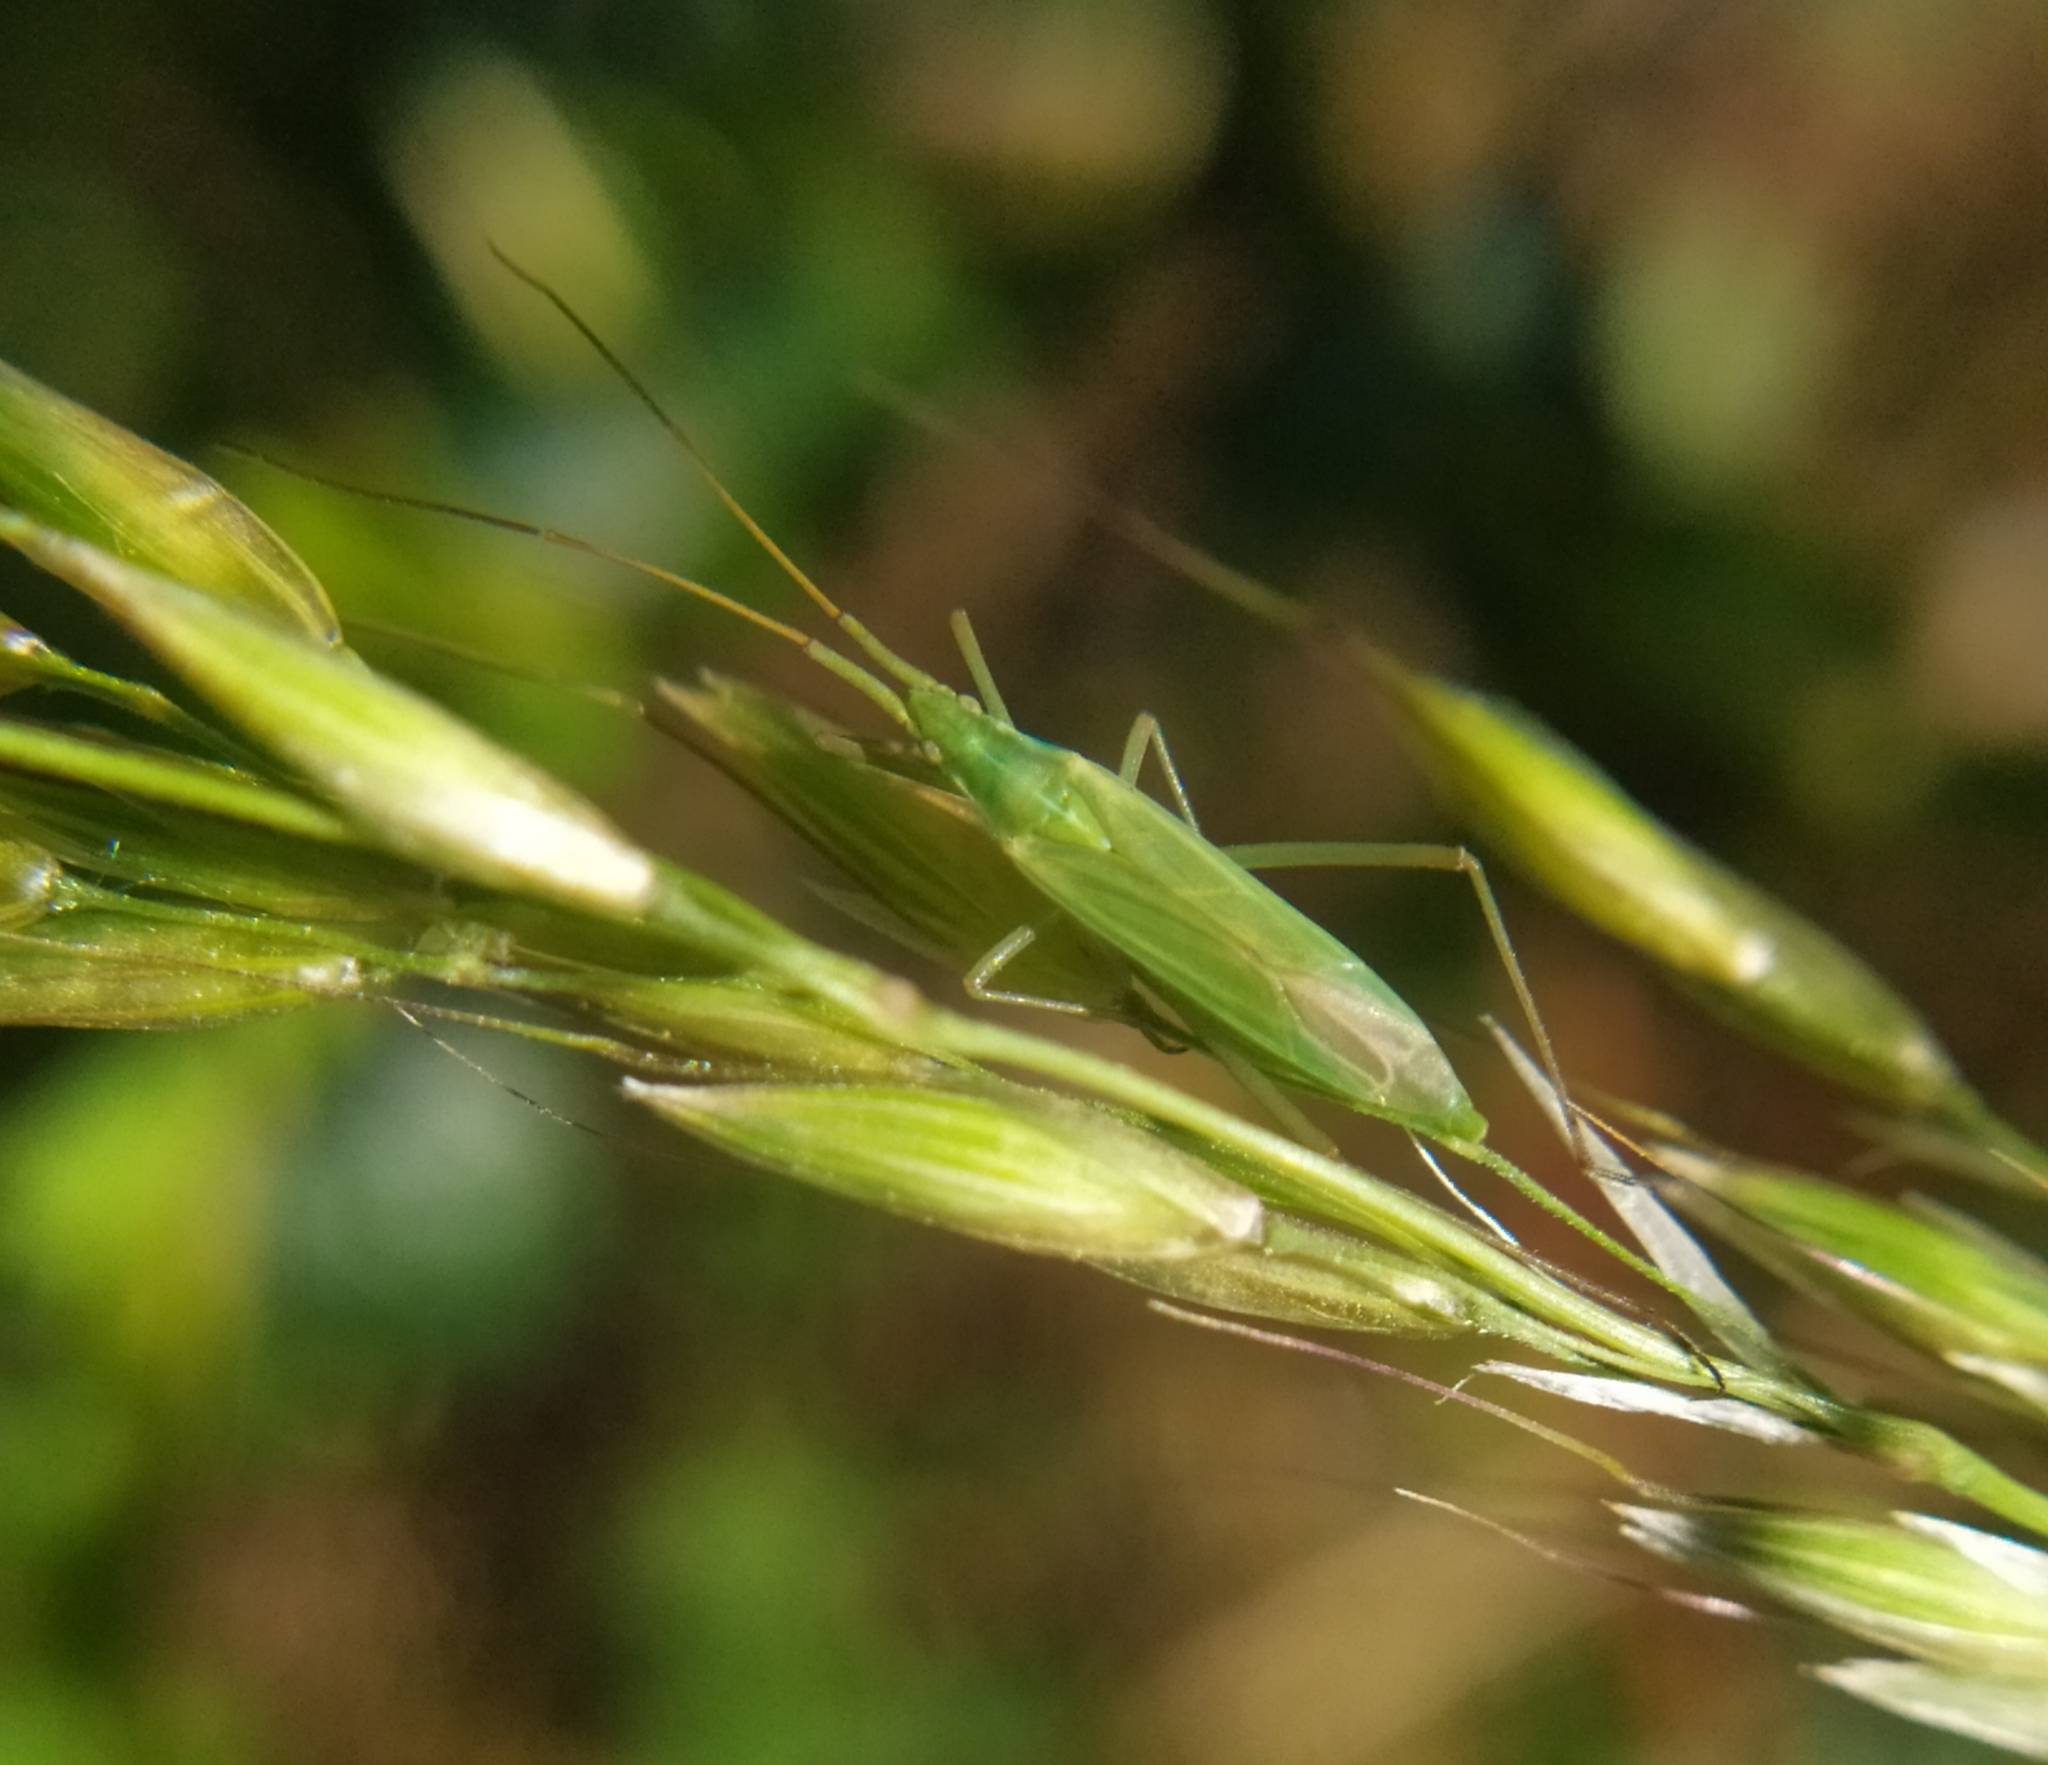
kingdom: Animalia
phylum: Arthropoda
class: Insecta
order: Hemiptera
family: Miridae
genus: Megaloceroea
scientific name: Megaloceroea recticornis
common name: Plant bug
